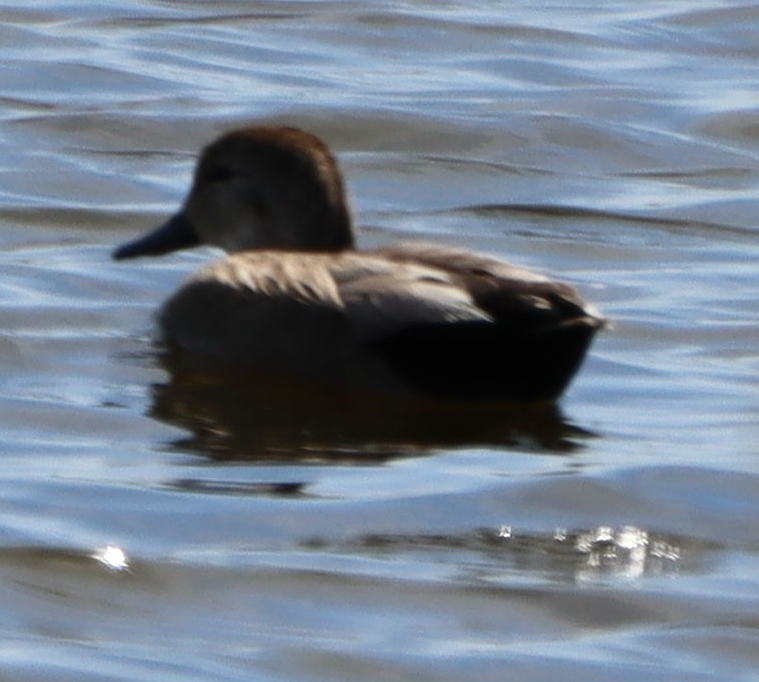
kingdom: Animalia
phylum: Chordata
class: Aves
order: Anseriformes
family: Anatidae
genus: Mareca
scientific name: Mareca strepera
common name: Gadwall
